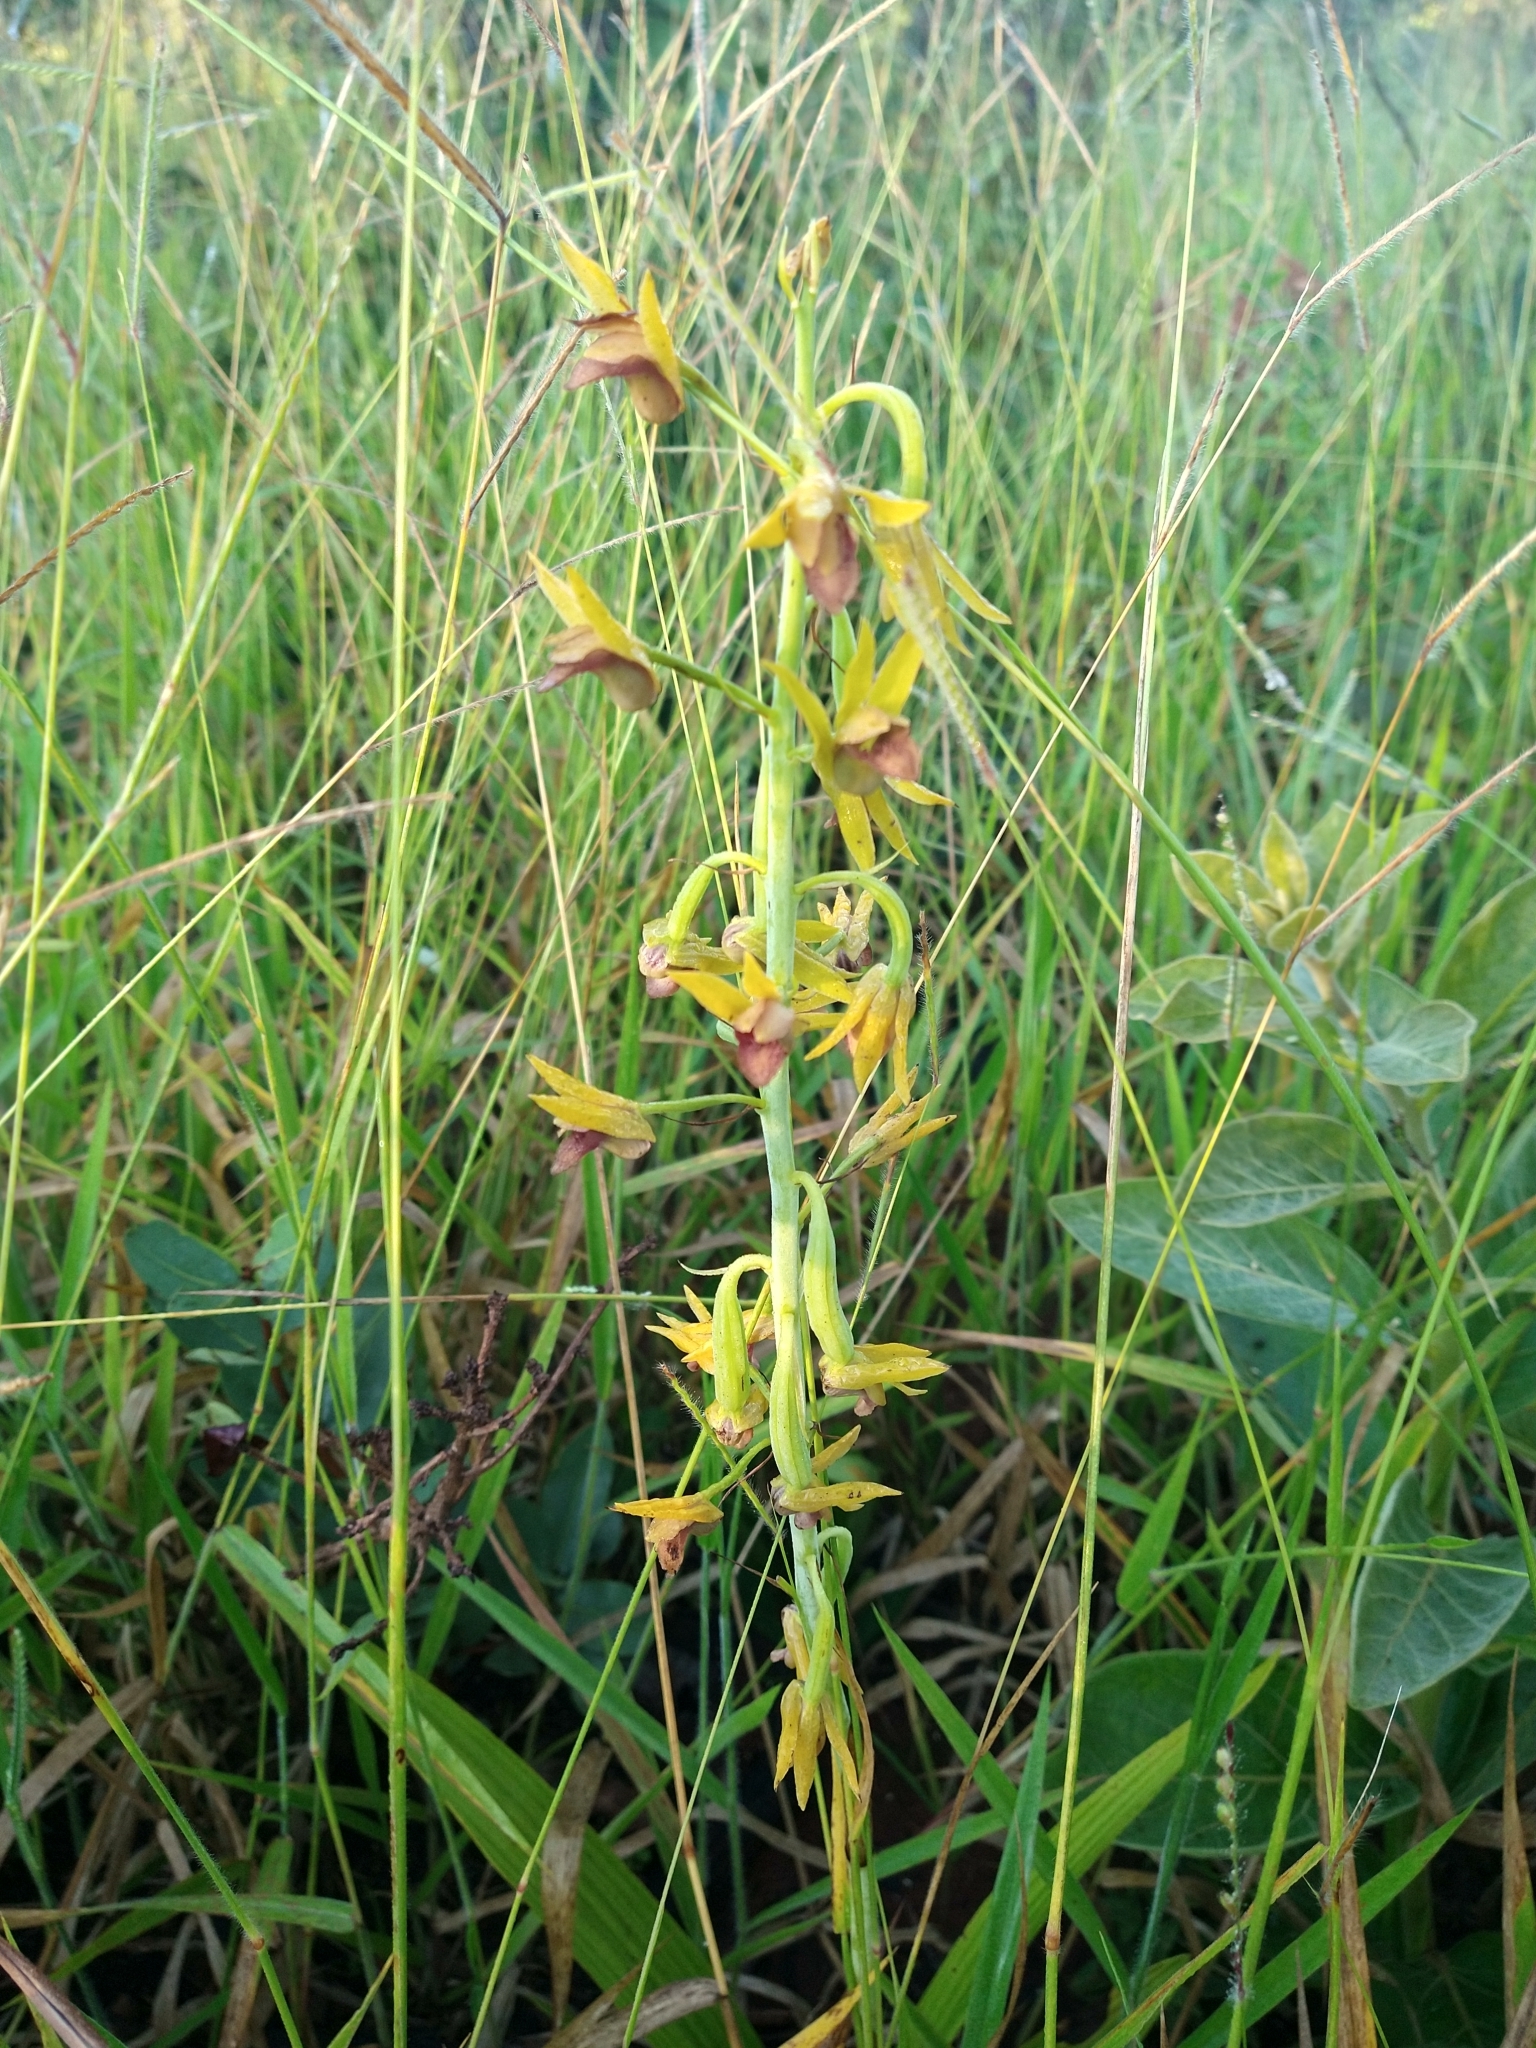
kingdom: Plantae
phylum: Tracheophyta
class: Liliopsida
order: Asparagales
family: Orchidaceae
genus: Eulophia
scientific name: Eulophia alta
